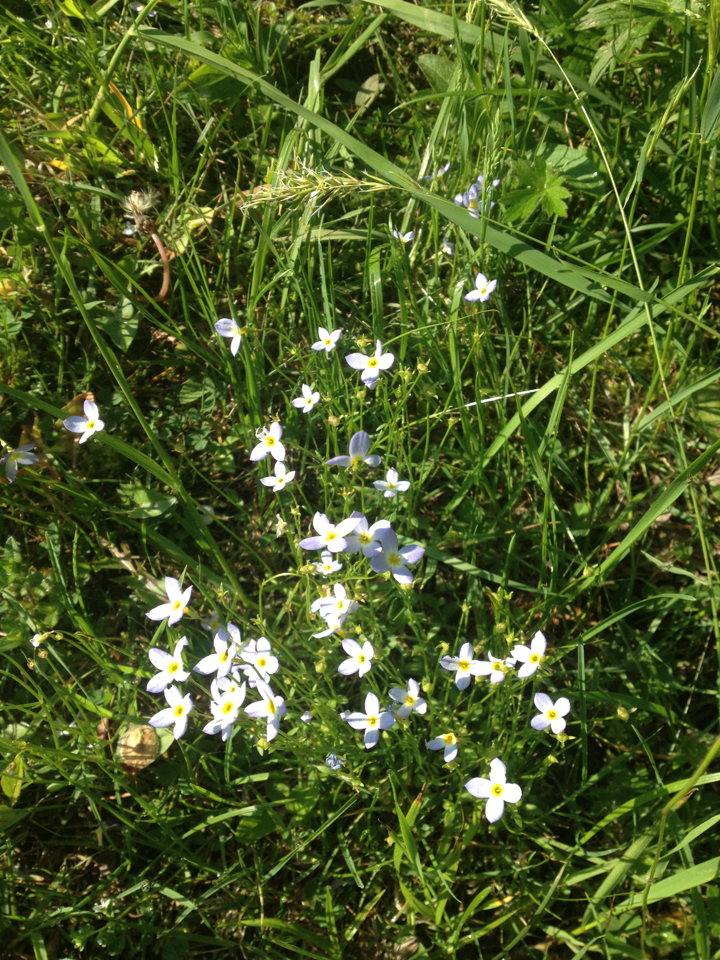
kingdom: Plantae
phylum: Tracheophyta
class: Magnoliopsida
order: Gentianales
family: Rubiaceae
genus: Houstonia
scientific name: Houstonia caerulea
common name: Bluets
